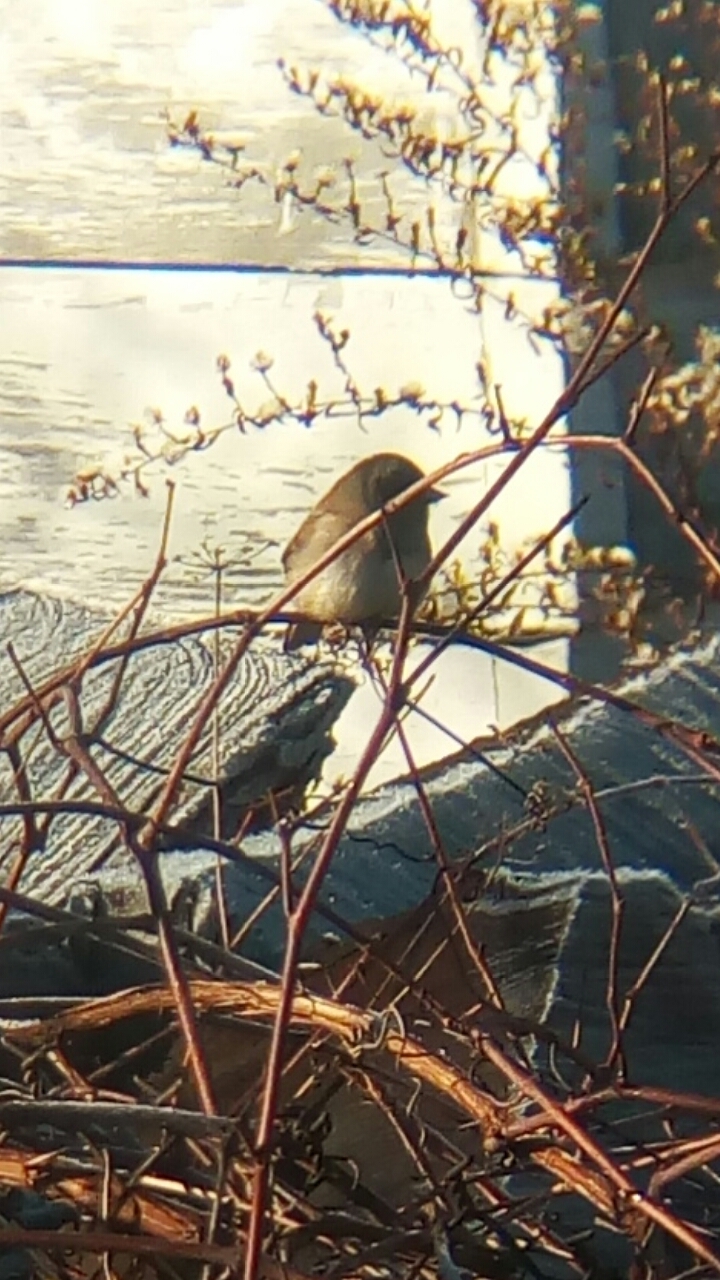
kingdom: Animalia
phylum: Chordata
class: Aves
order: Passeriformes
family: Passerellidae
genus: Junco
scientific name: Junco hyemalis
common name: Dark-eyed junco
